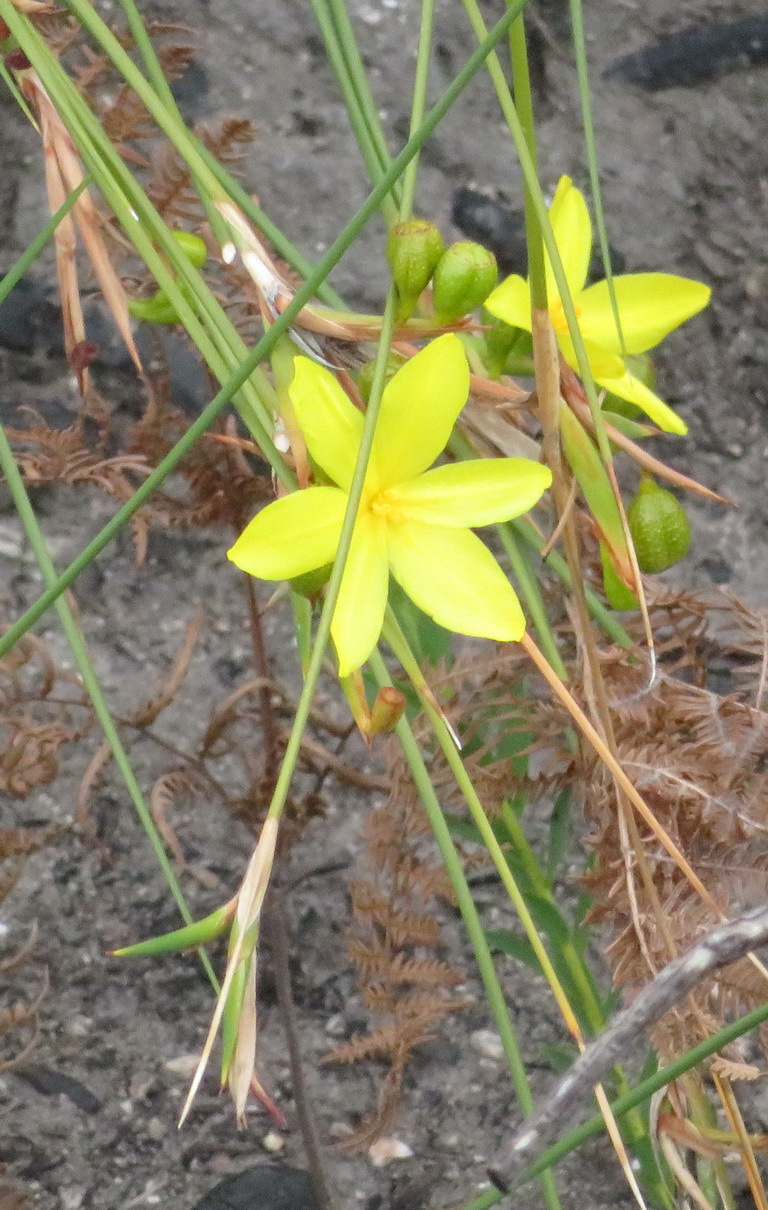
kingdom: Plantae
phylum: Tracheophyta
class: Liliopsida
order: Asparagales
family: Iridaceae
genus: Bobartia
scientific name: Bobartia aphylla
